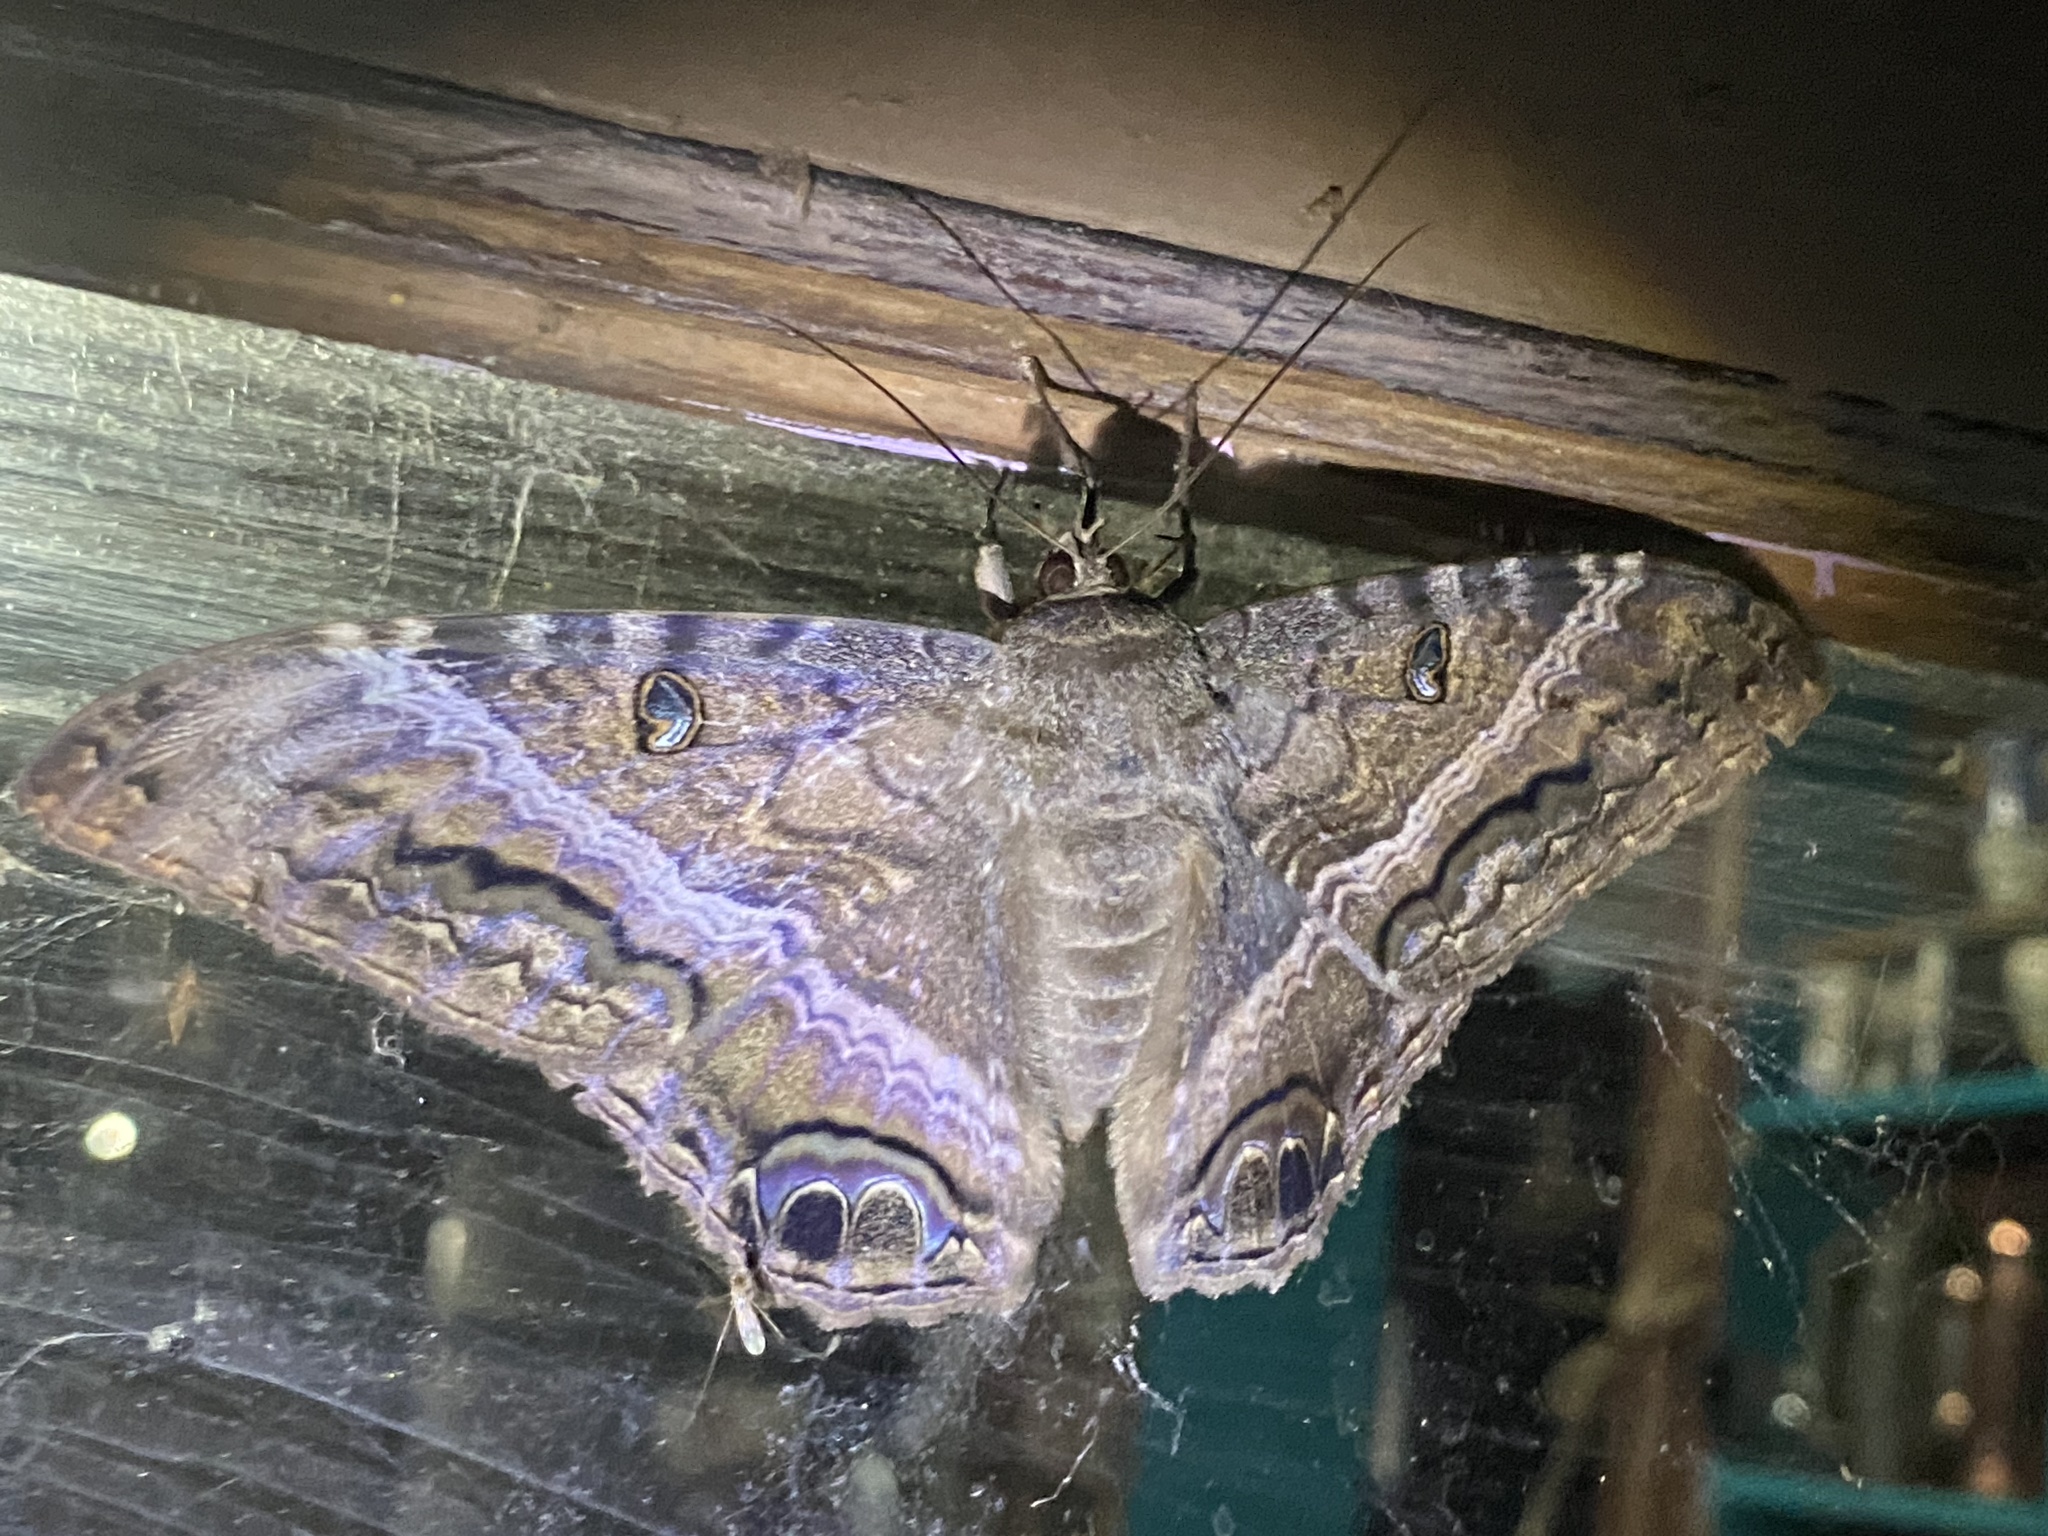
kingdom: Animalia
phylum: Arthropoda
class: Insecta
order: Lepidoptera
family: Erebidae
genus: Ascalapha
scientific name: Ascalapha odorata
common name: Black witch
